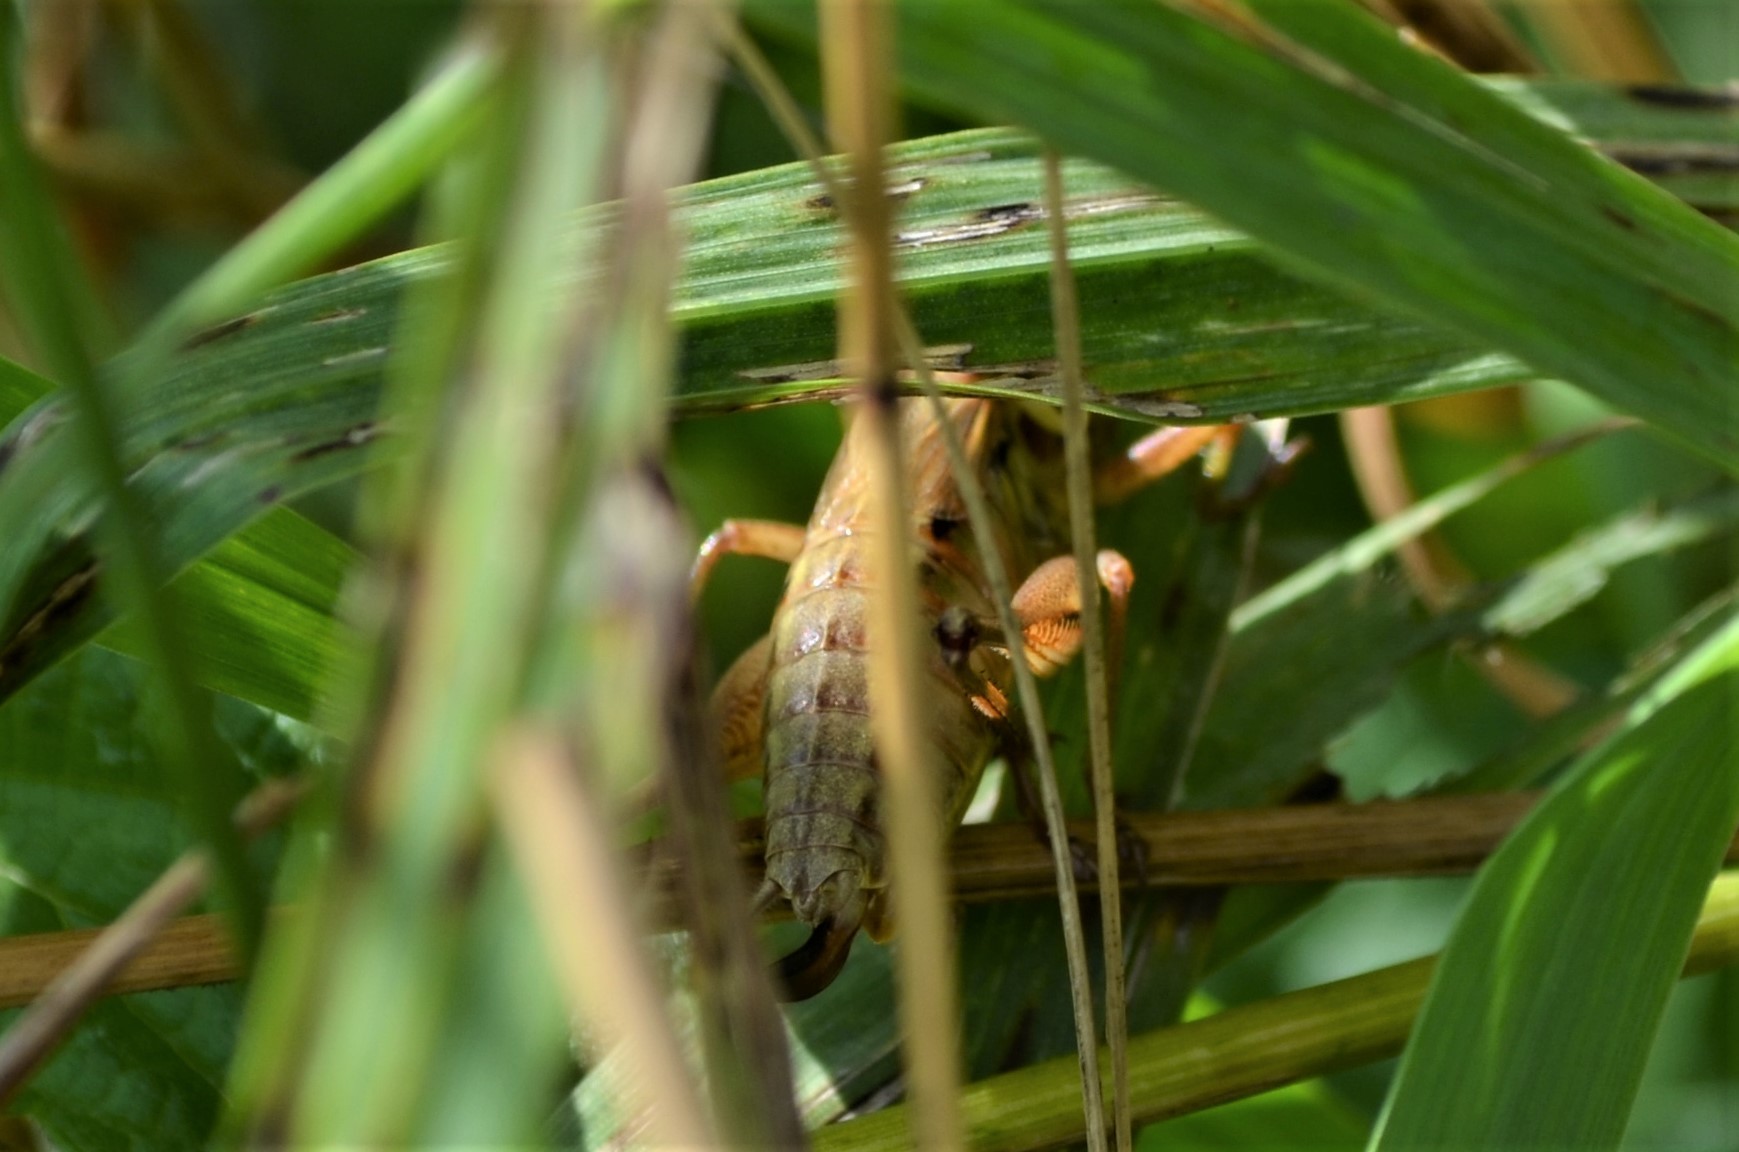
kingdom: Animalia
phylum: Arthropoda
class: Insecta
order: Orthoptera
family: Tettigoniidae
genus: Roeseliana
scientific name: Roeseliana roeselii
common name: Roesel's bush cricket
